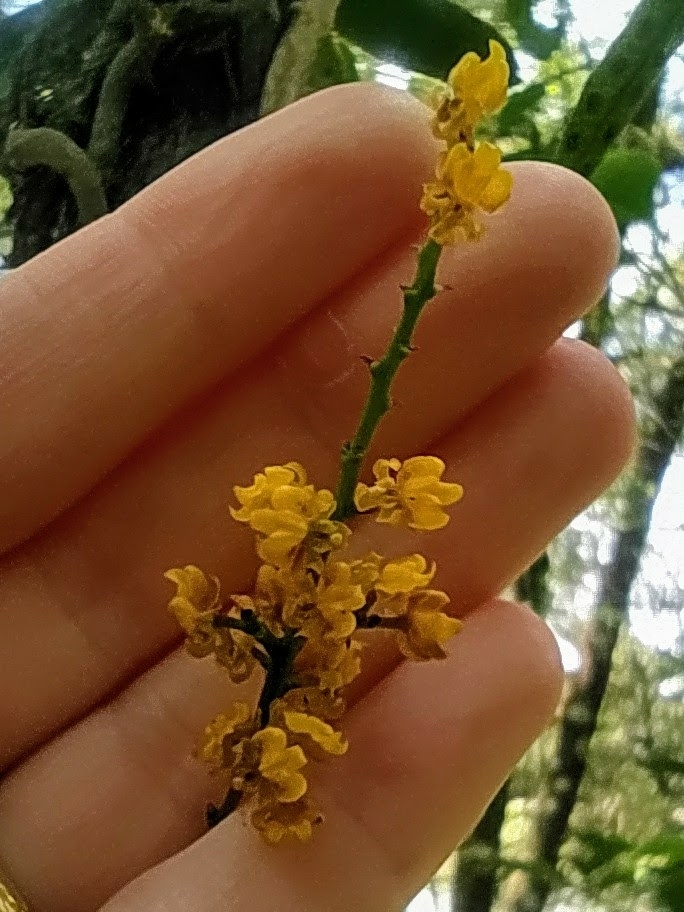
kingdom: Plantae
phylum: Tracheophyta
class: Liliopsida
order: Asparagales
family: Orchidaceae
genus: Trichocentrum
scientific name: Trichocentrum pumilum
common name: Mule-ear orchid
